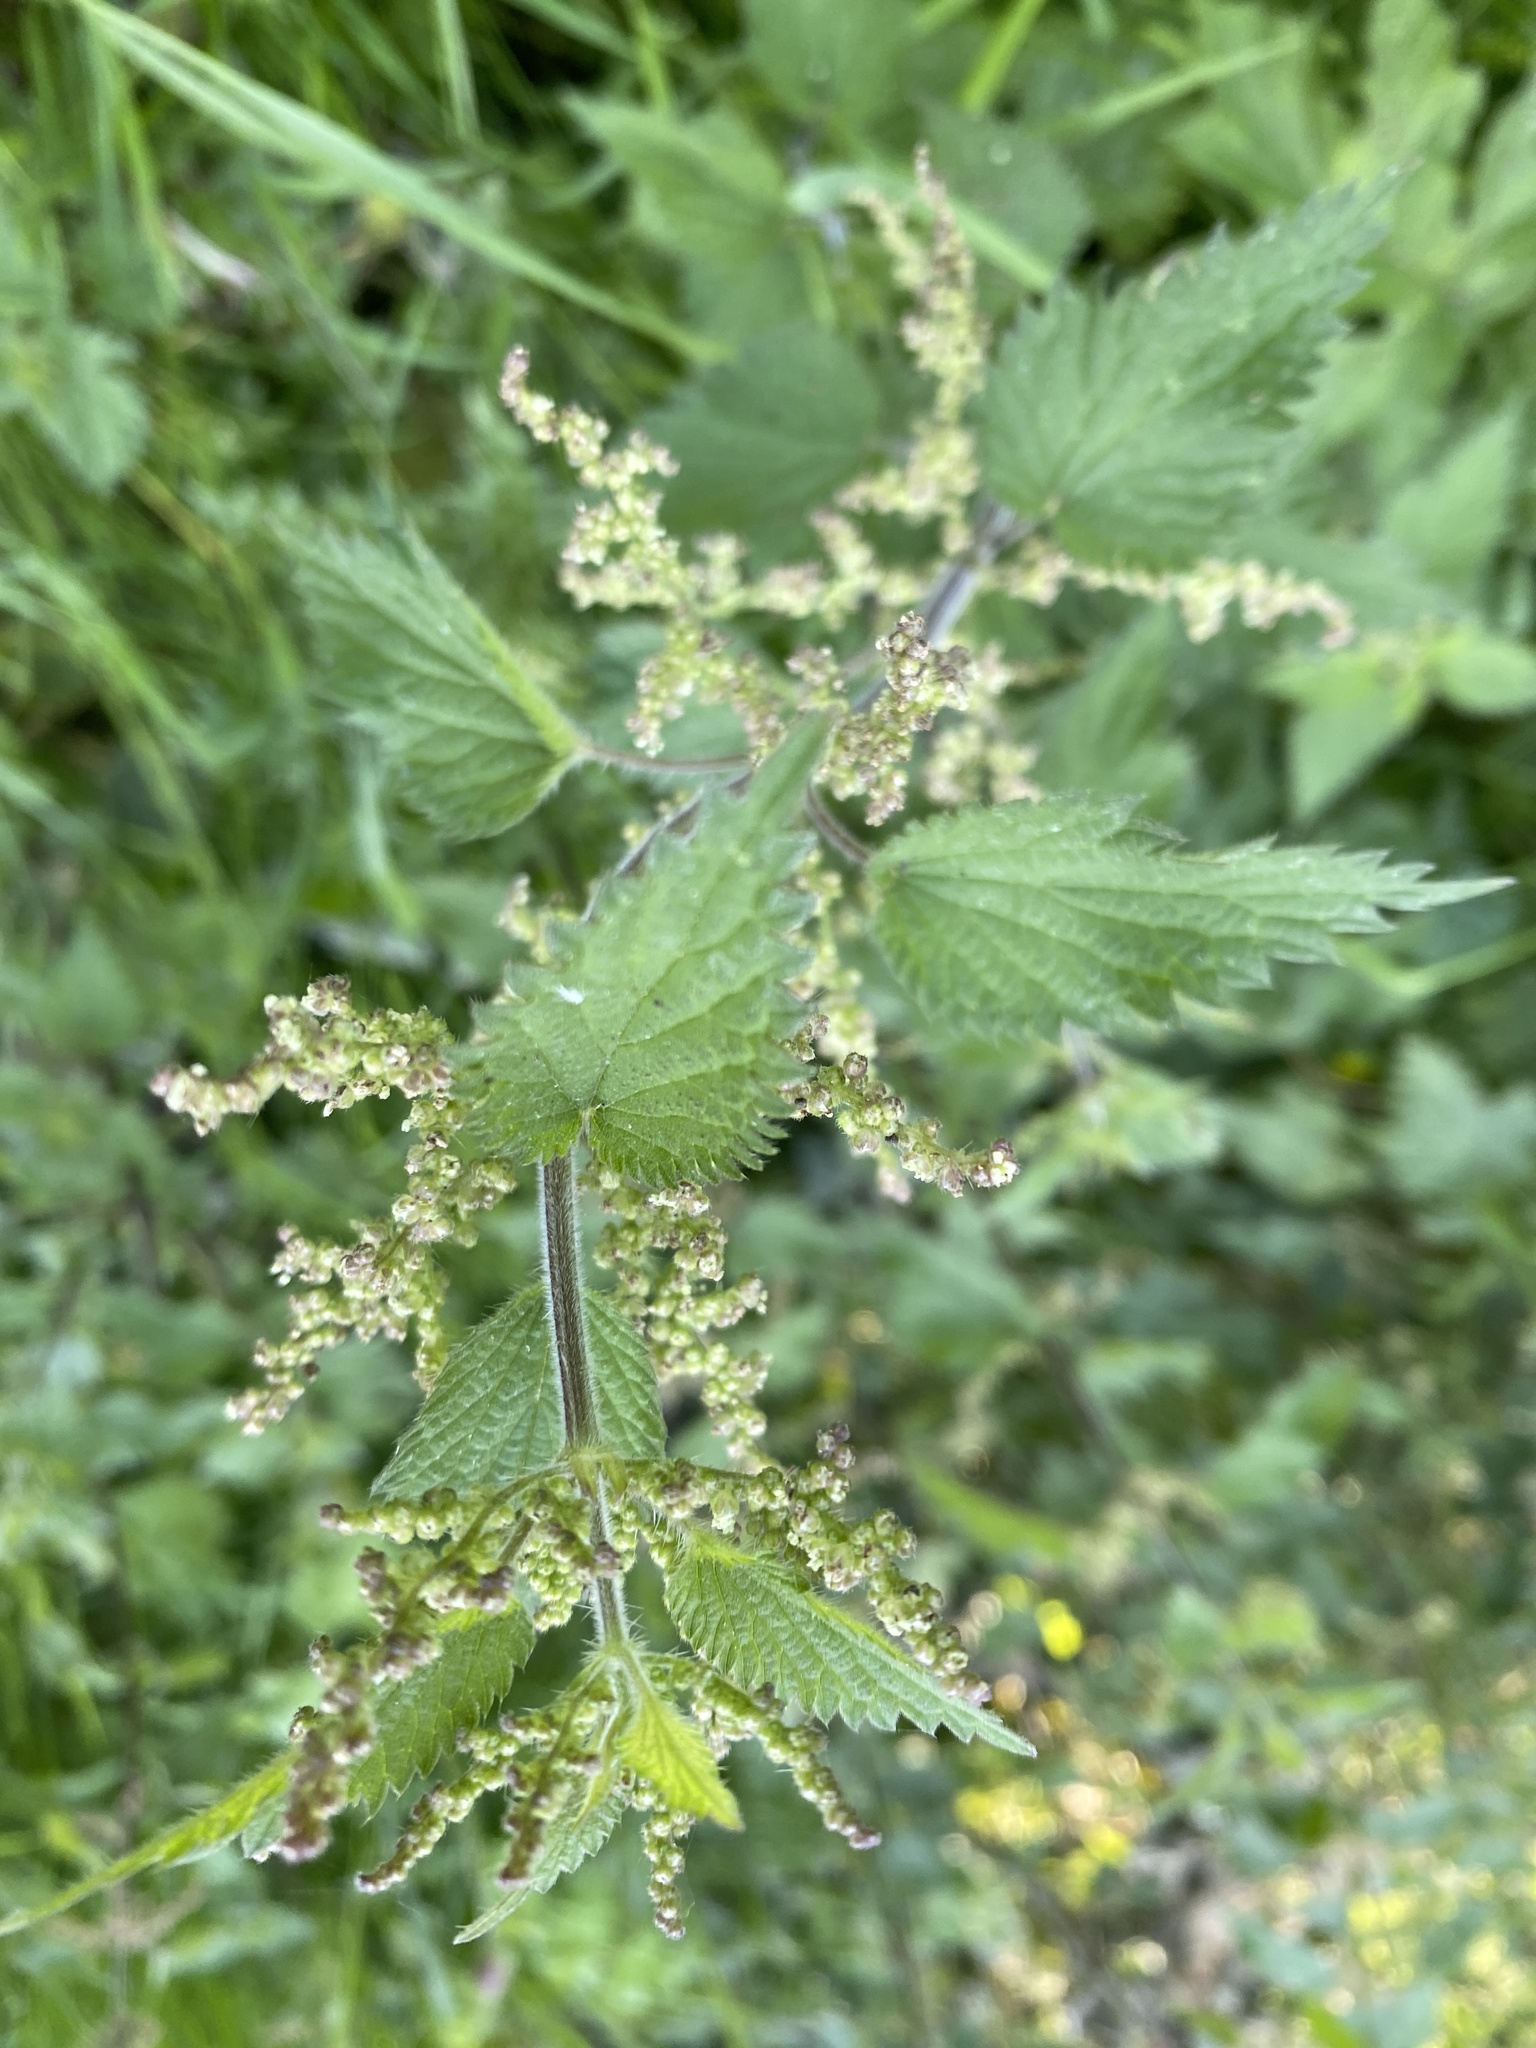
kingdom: Plantae
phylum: Tracheophyta
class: Magnoliopsida
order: Rosales
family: Urticaceae
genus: Urtica
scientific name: Urtica dioica
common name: Common nettle
